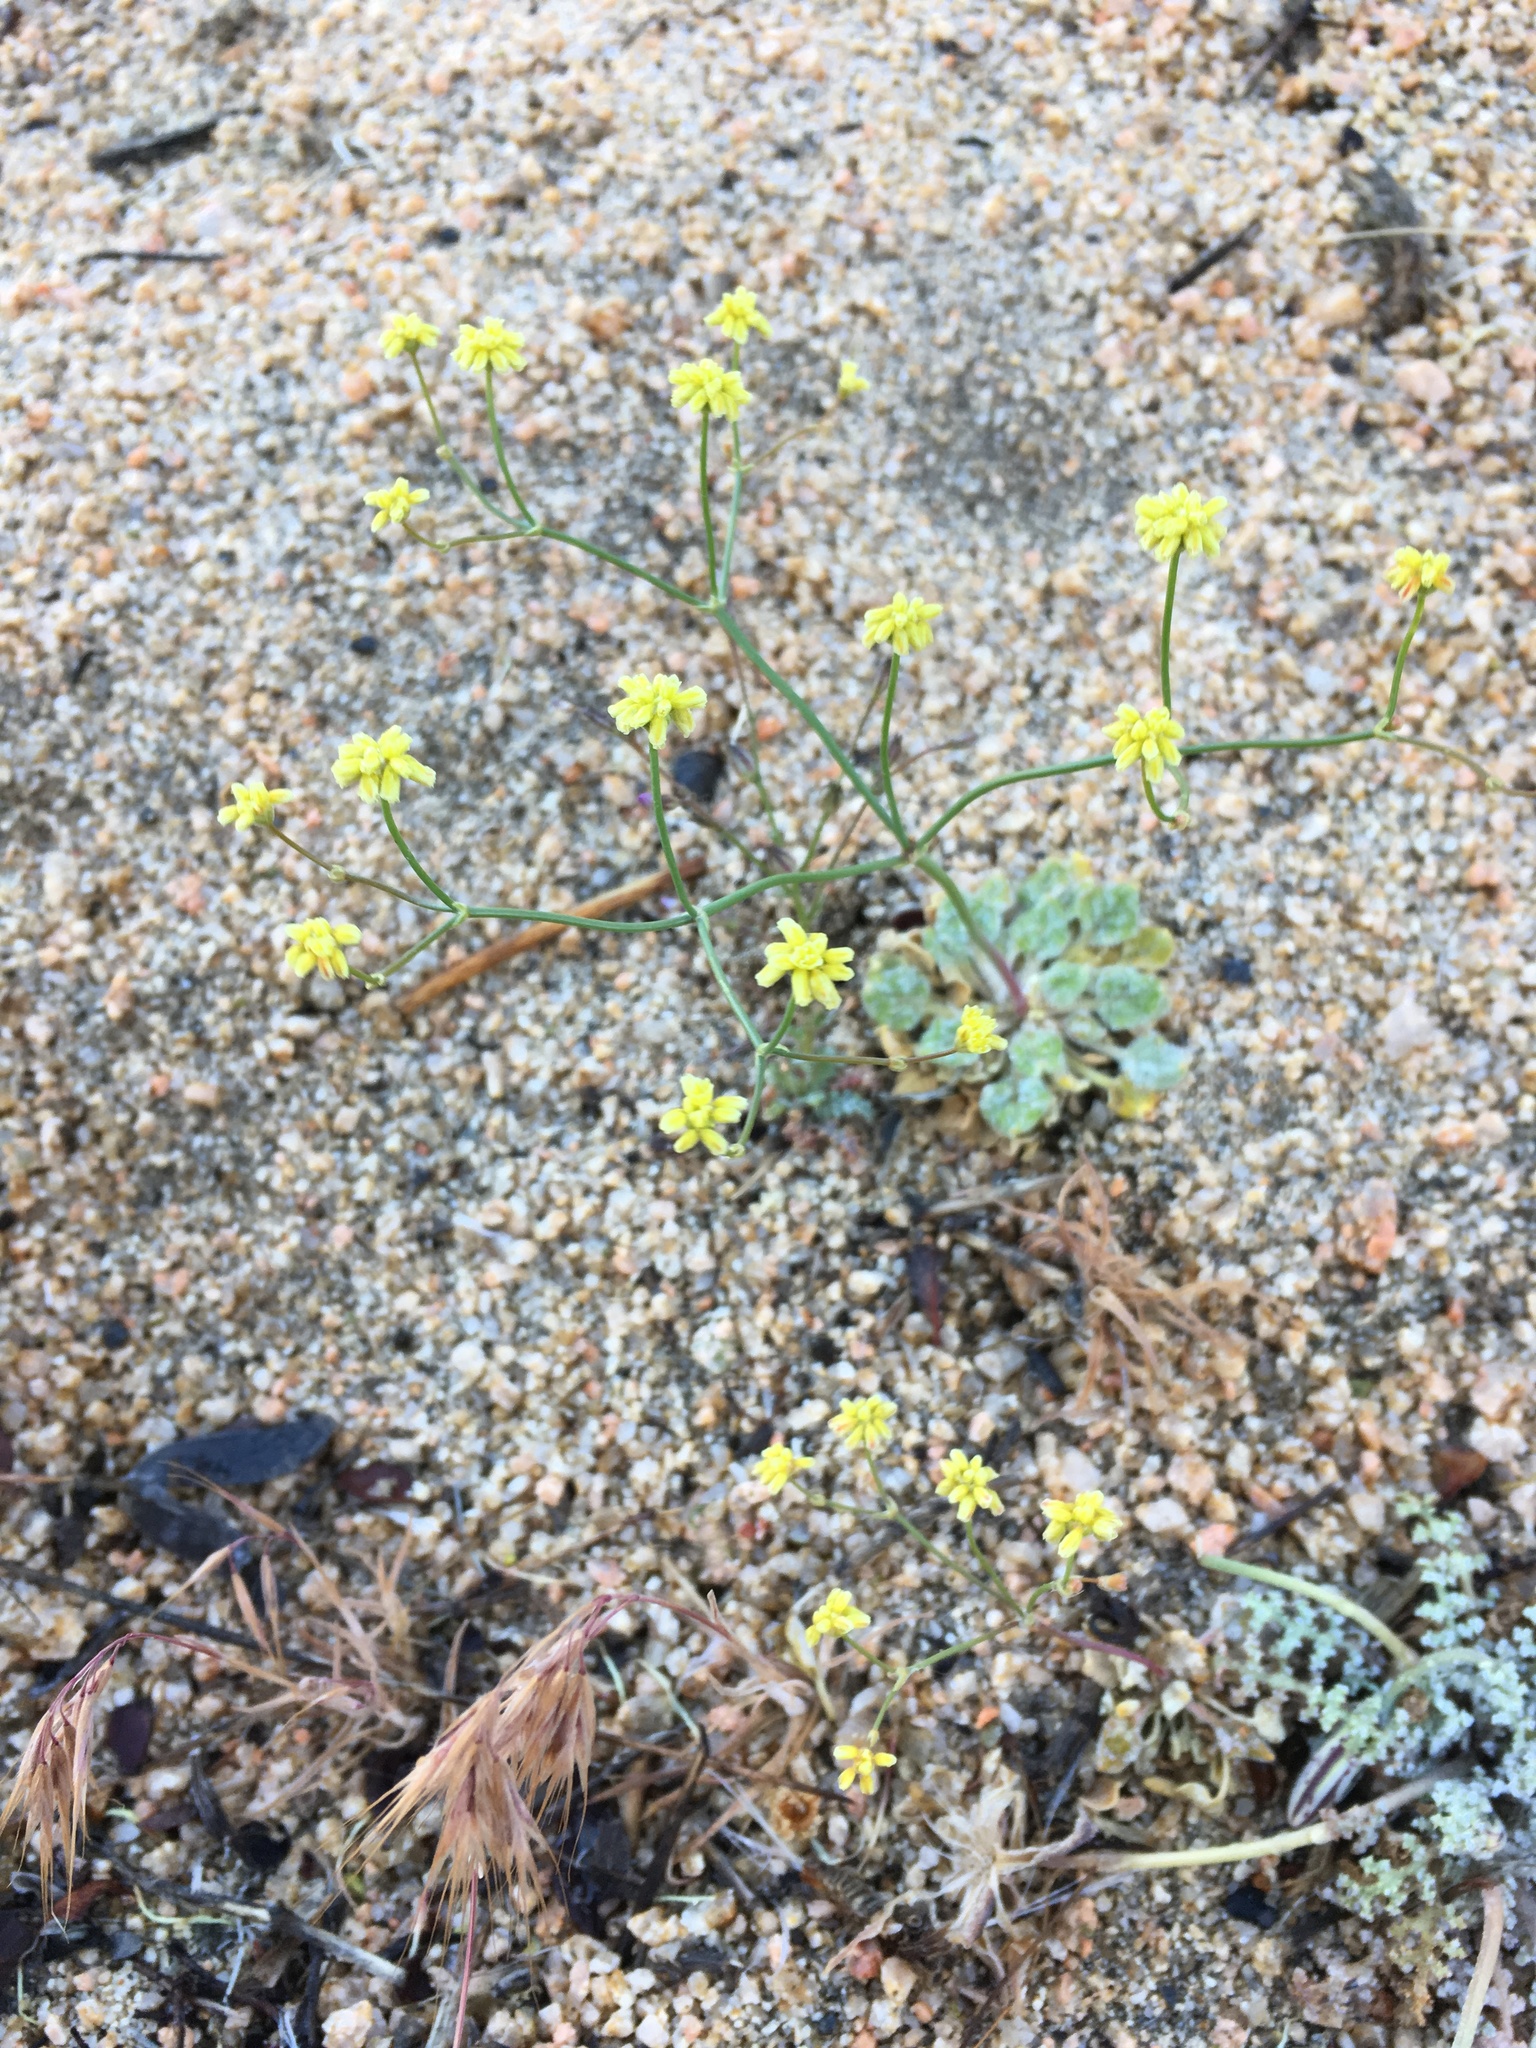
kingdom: Plantae
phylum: Tracheophyta
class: Magnoliopsida
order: Caryophyllales
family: Polygonaceae
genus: Eriogonum
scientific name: Eriogonum pusillum
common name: Yellow turbans
